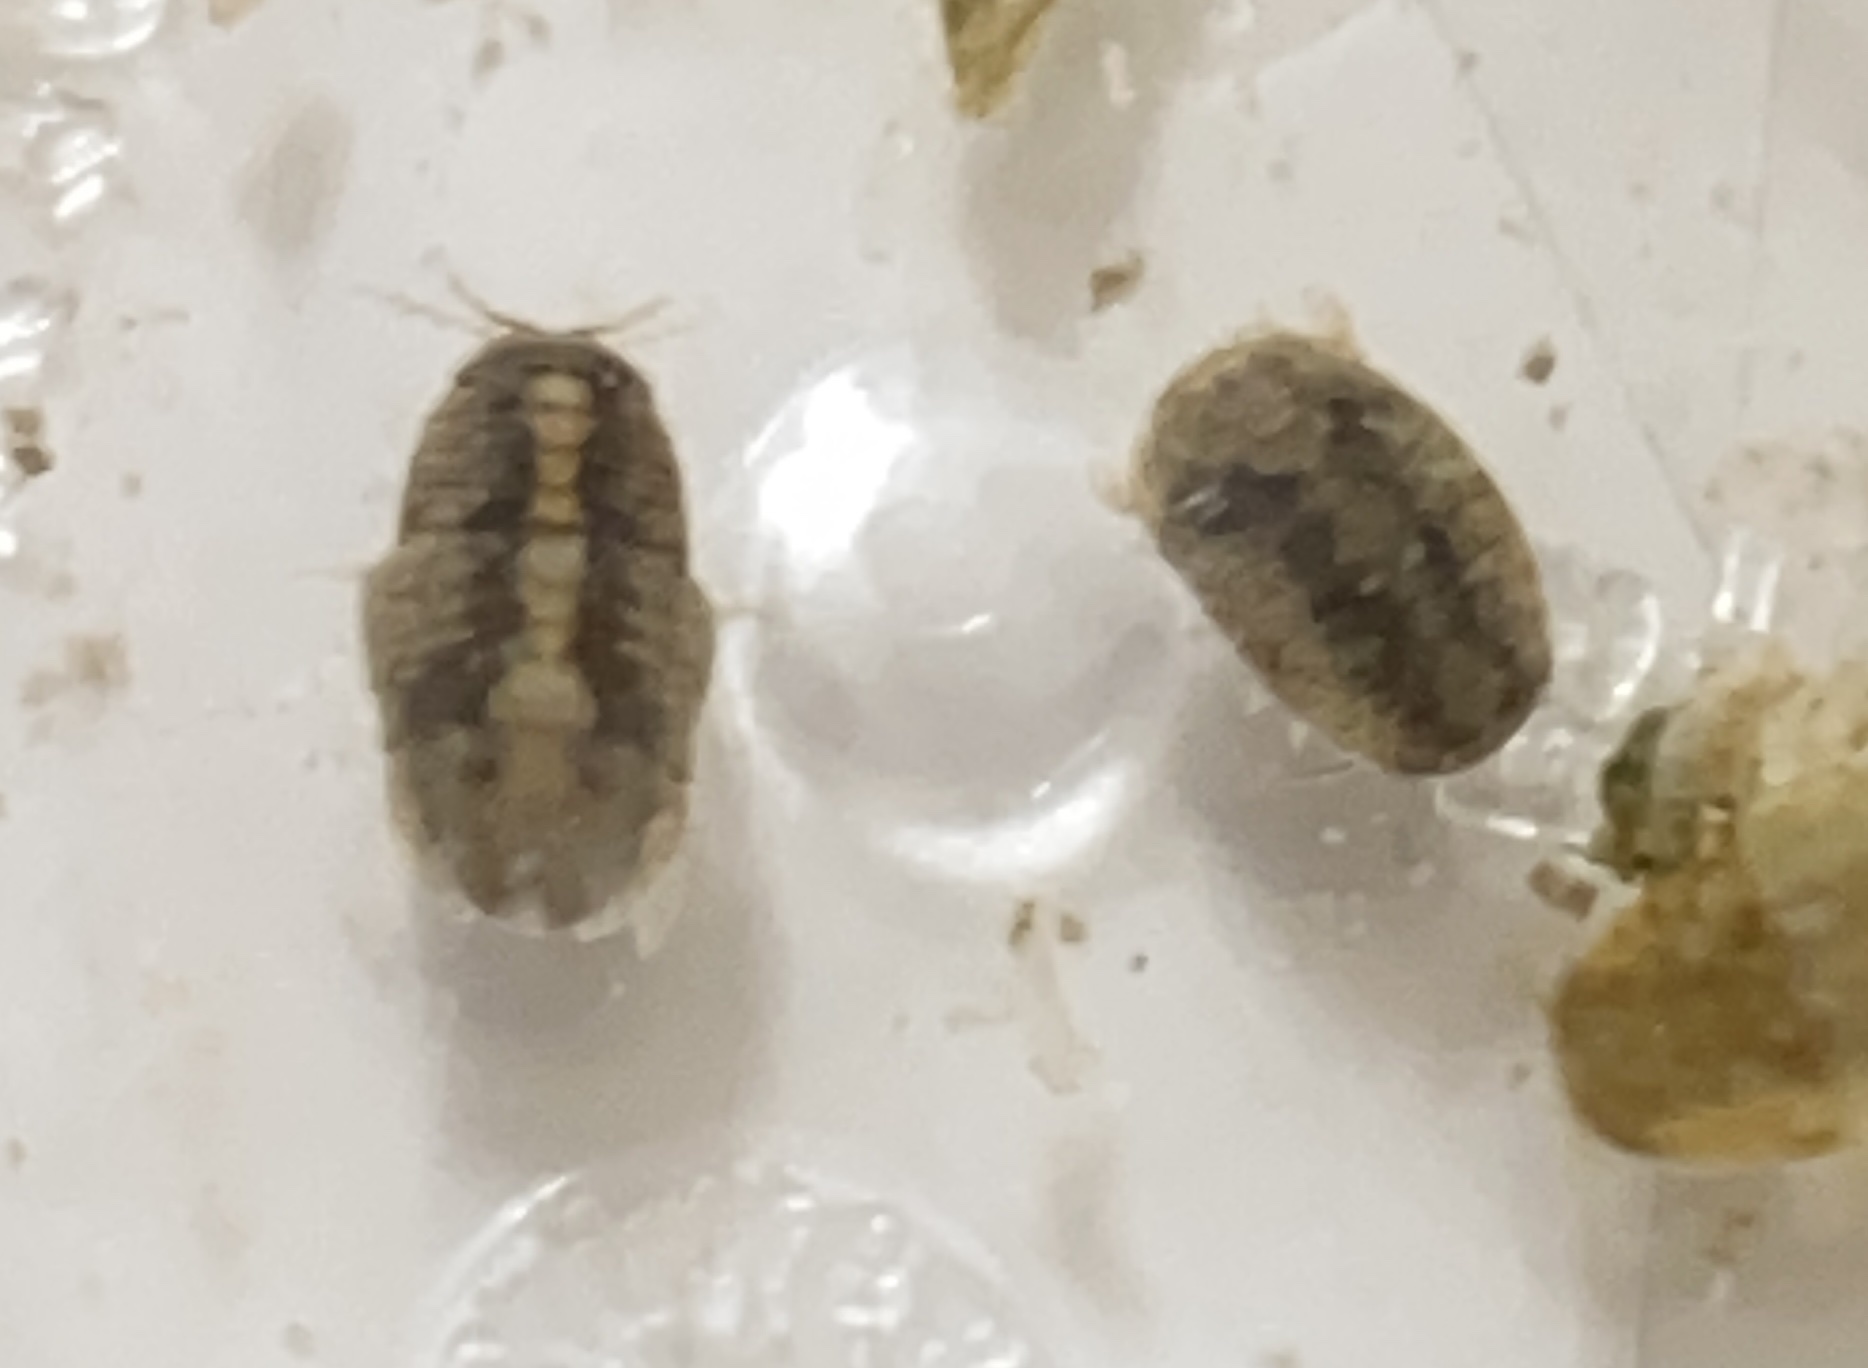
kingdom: Animalia
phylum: Arthropoda
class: Malacostraca
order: Isopoda
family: Sphaeromatidae
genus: Sphaeroma
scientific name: Sphaeroma quadridentatum
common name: Sea pill bug
